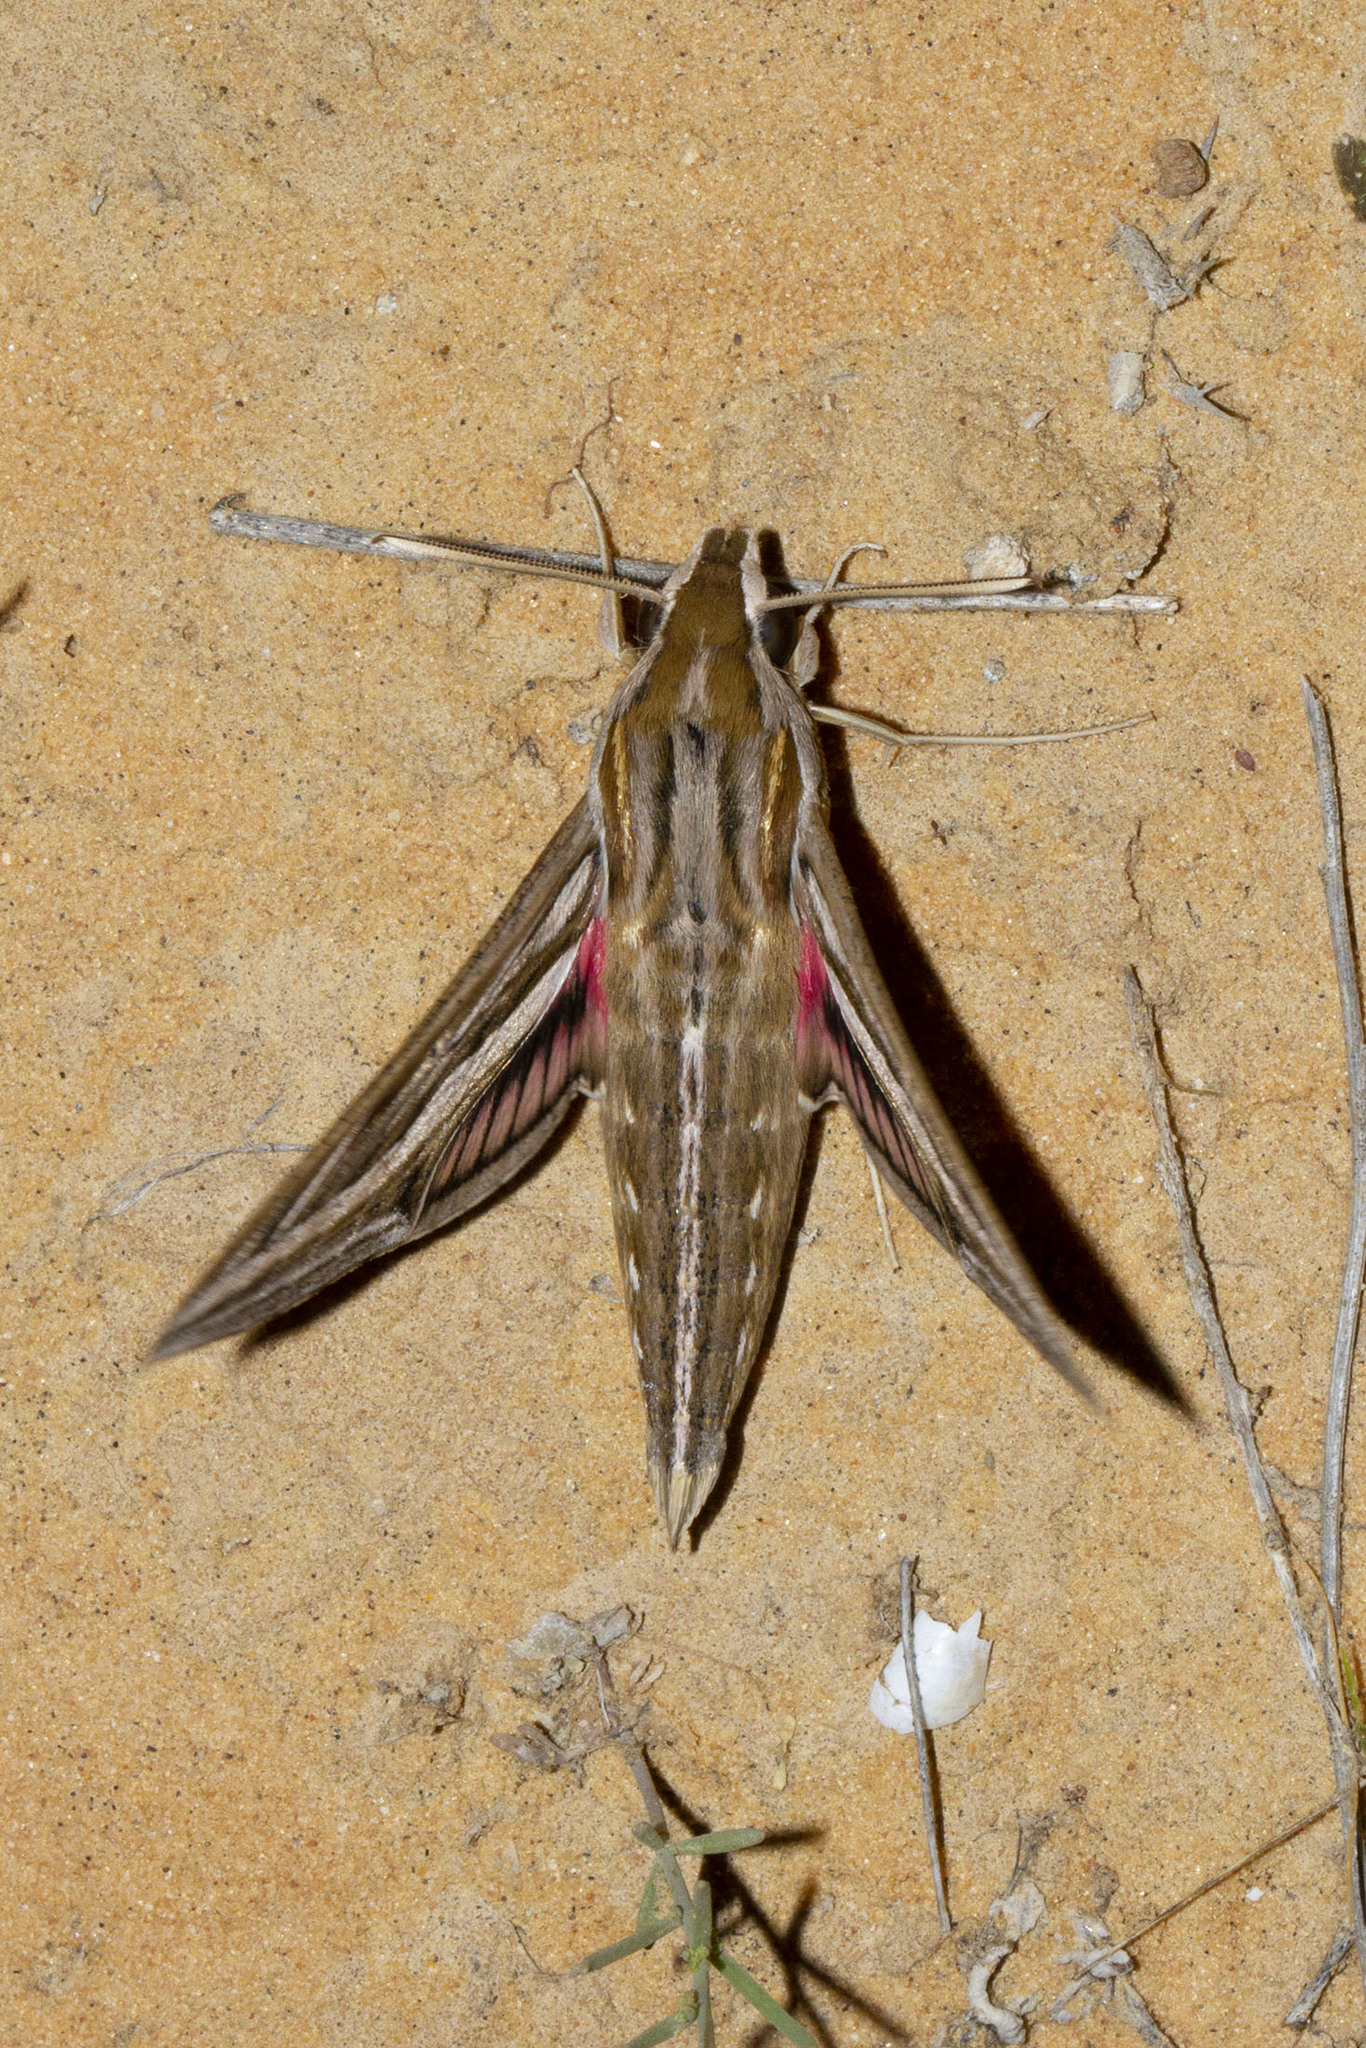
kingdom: Animalia
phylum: Arthropoda
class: Insecta
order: Lepidoptera
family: Sphingidae
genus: Hippotion
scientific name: Hippotion celerio
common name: Silver-striped hawk-moth
